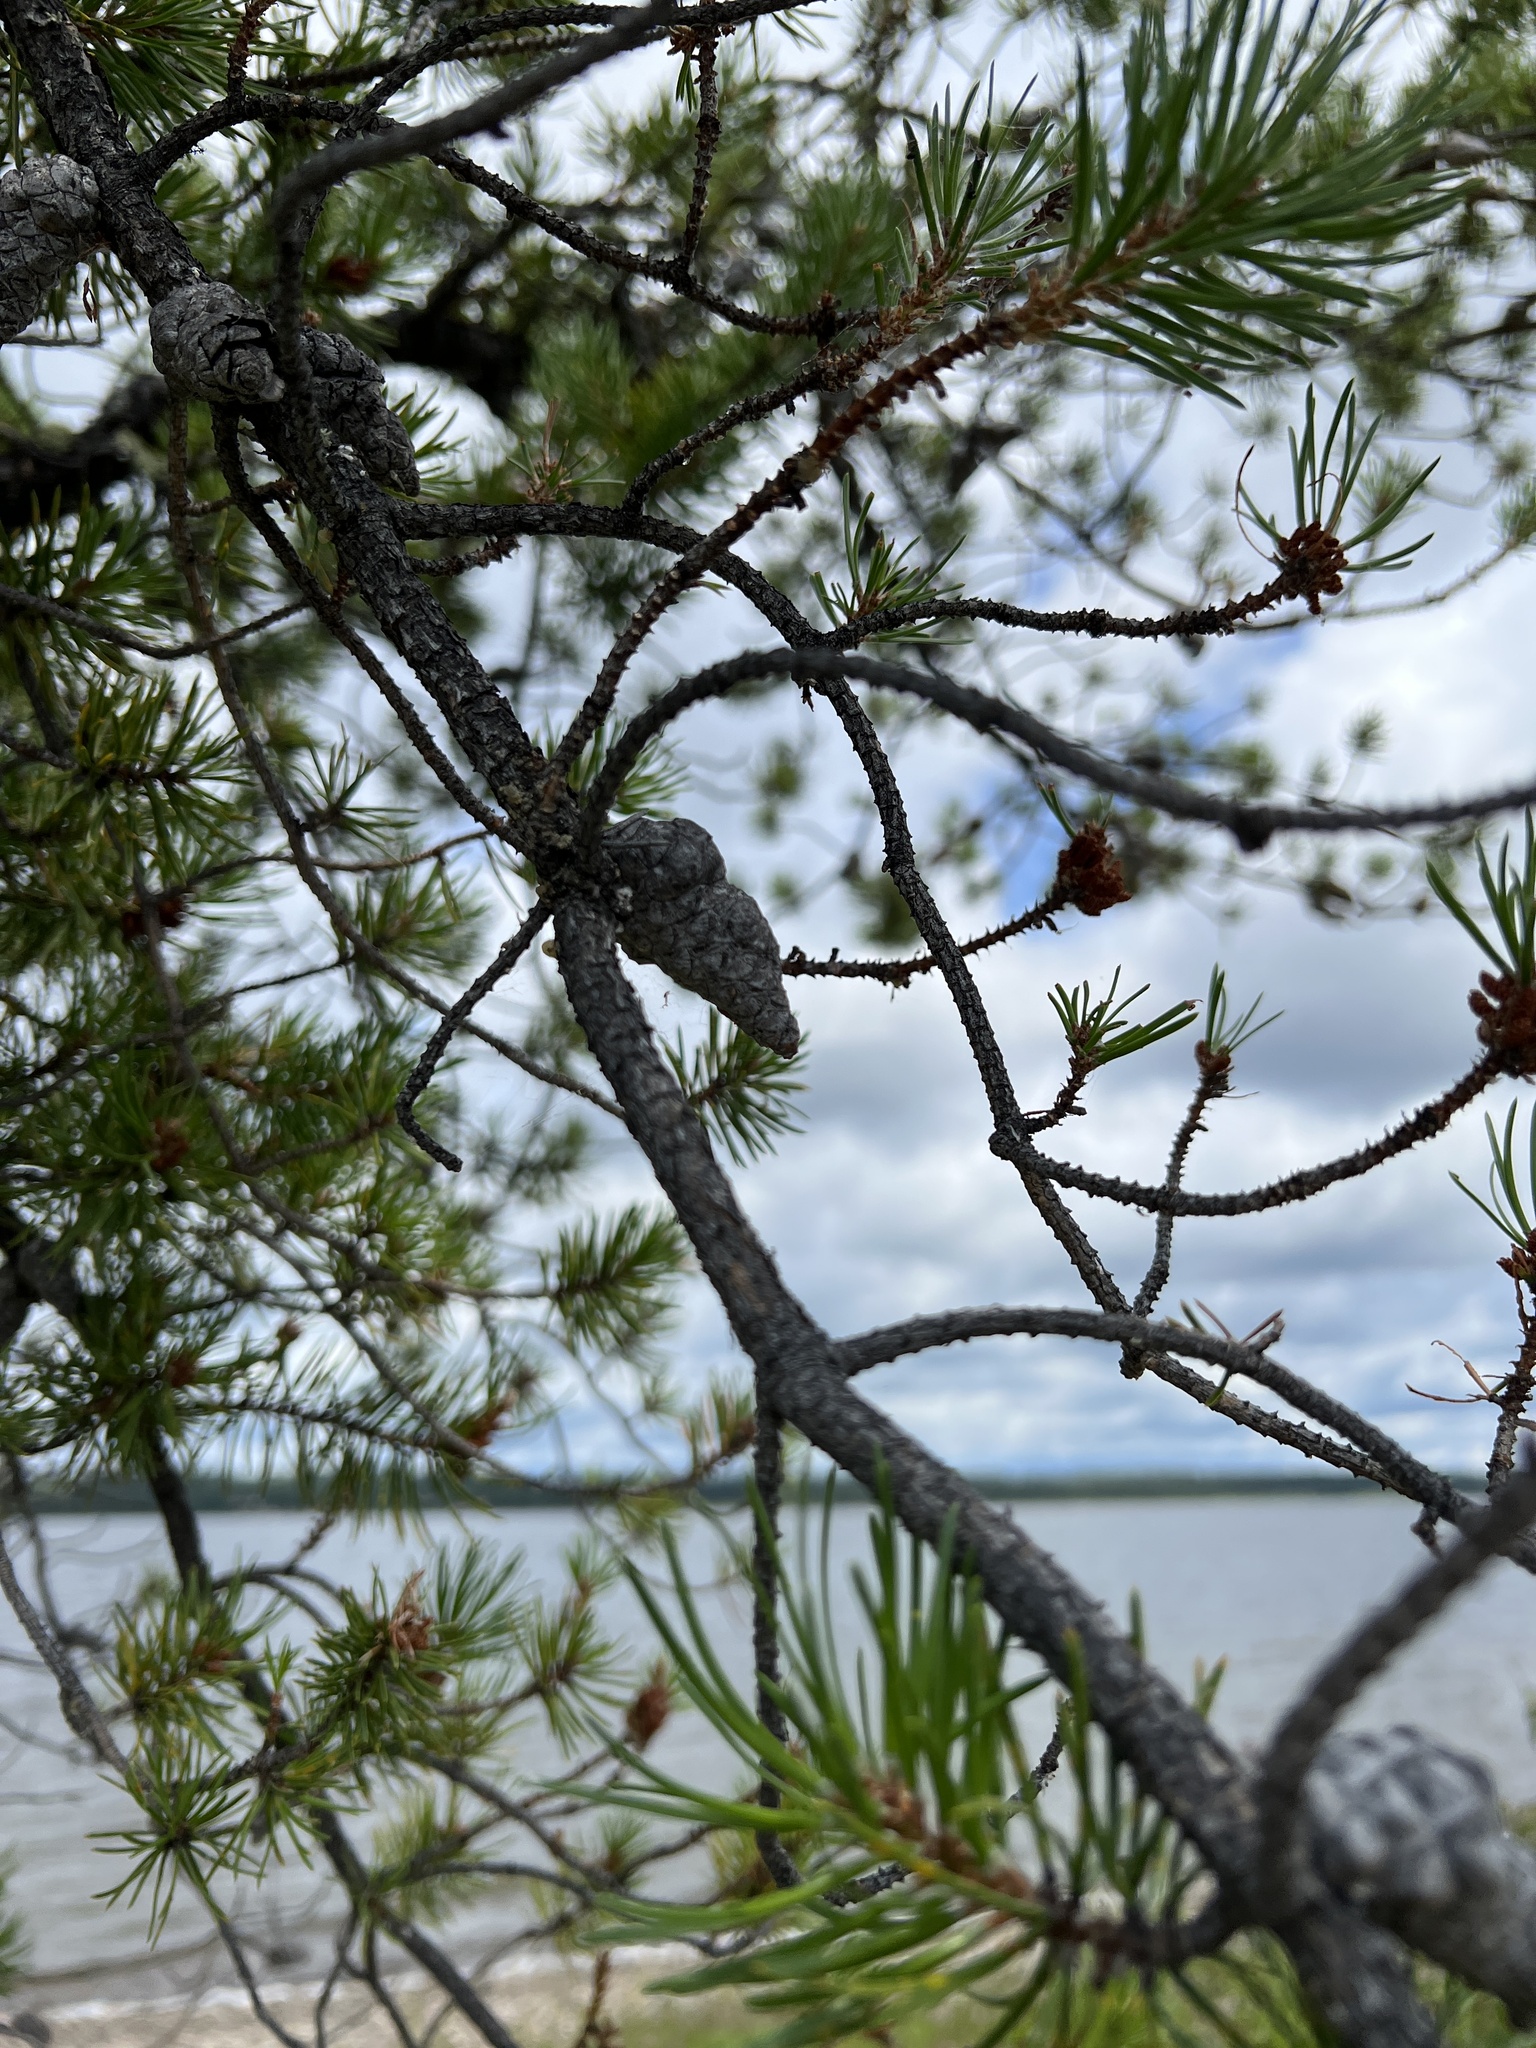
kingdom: Plantae
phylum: Tracheophyta
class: Pinopsida
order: Pinales
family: Pinaceae
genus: Pinus
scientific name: Pinus banksiana
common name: Jack pine
